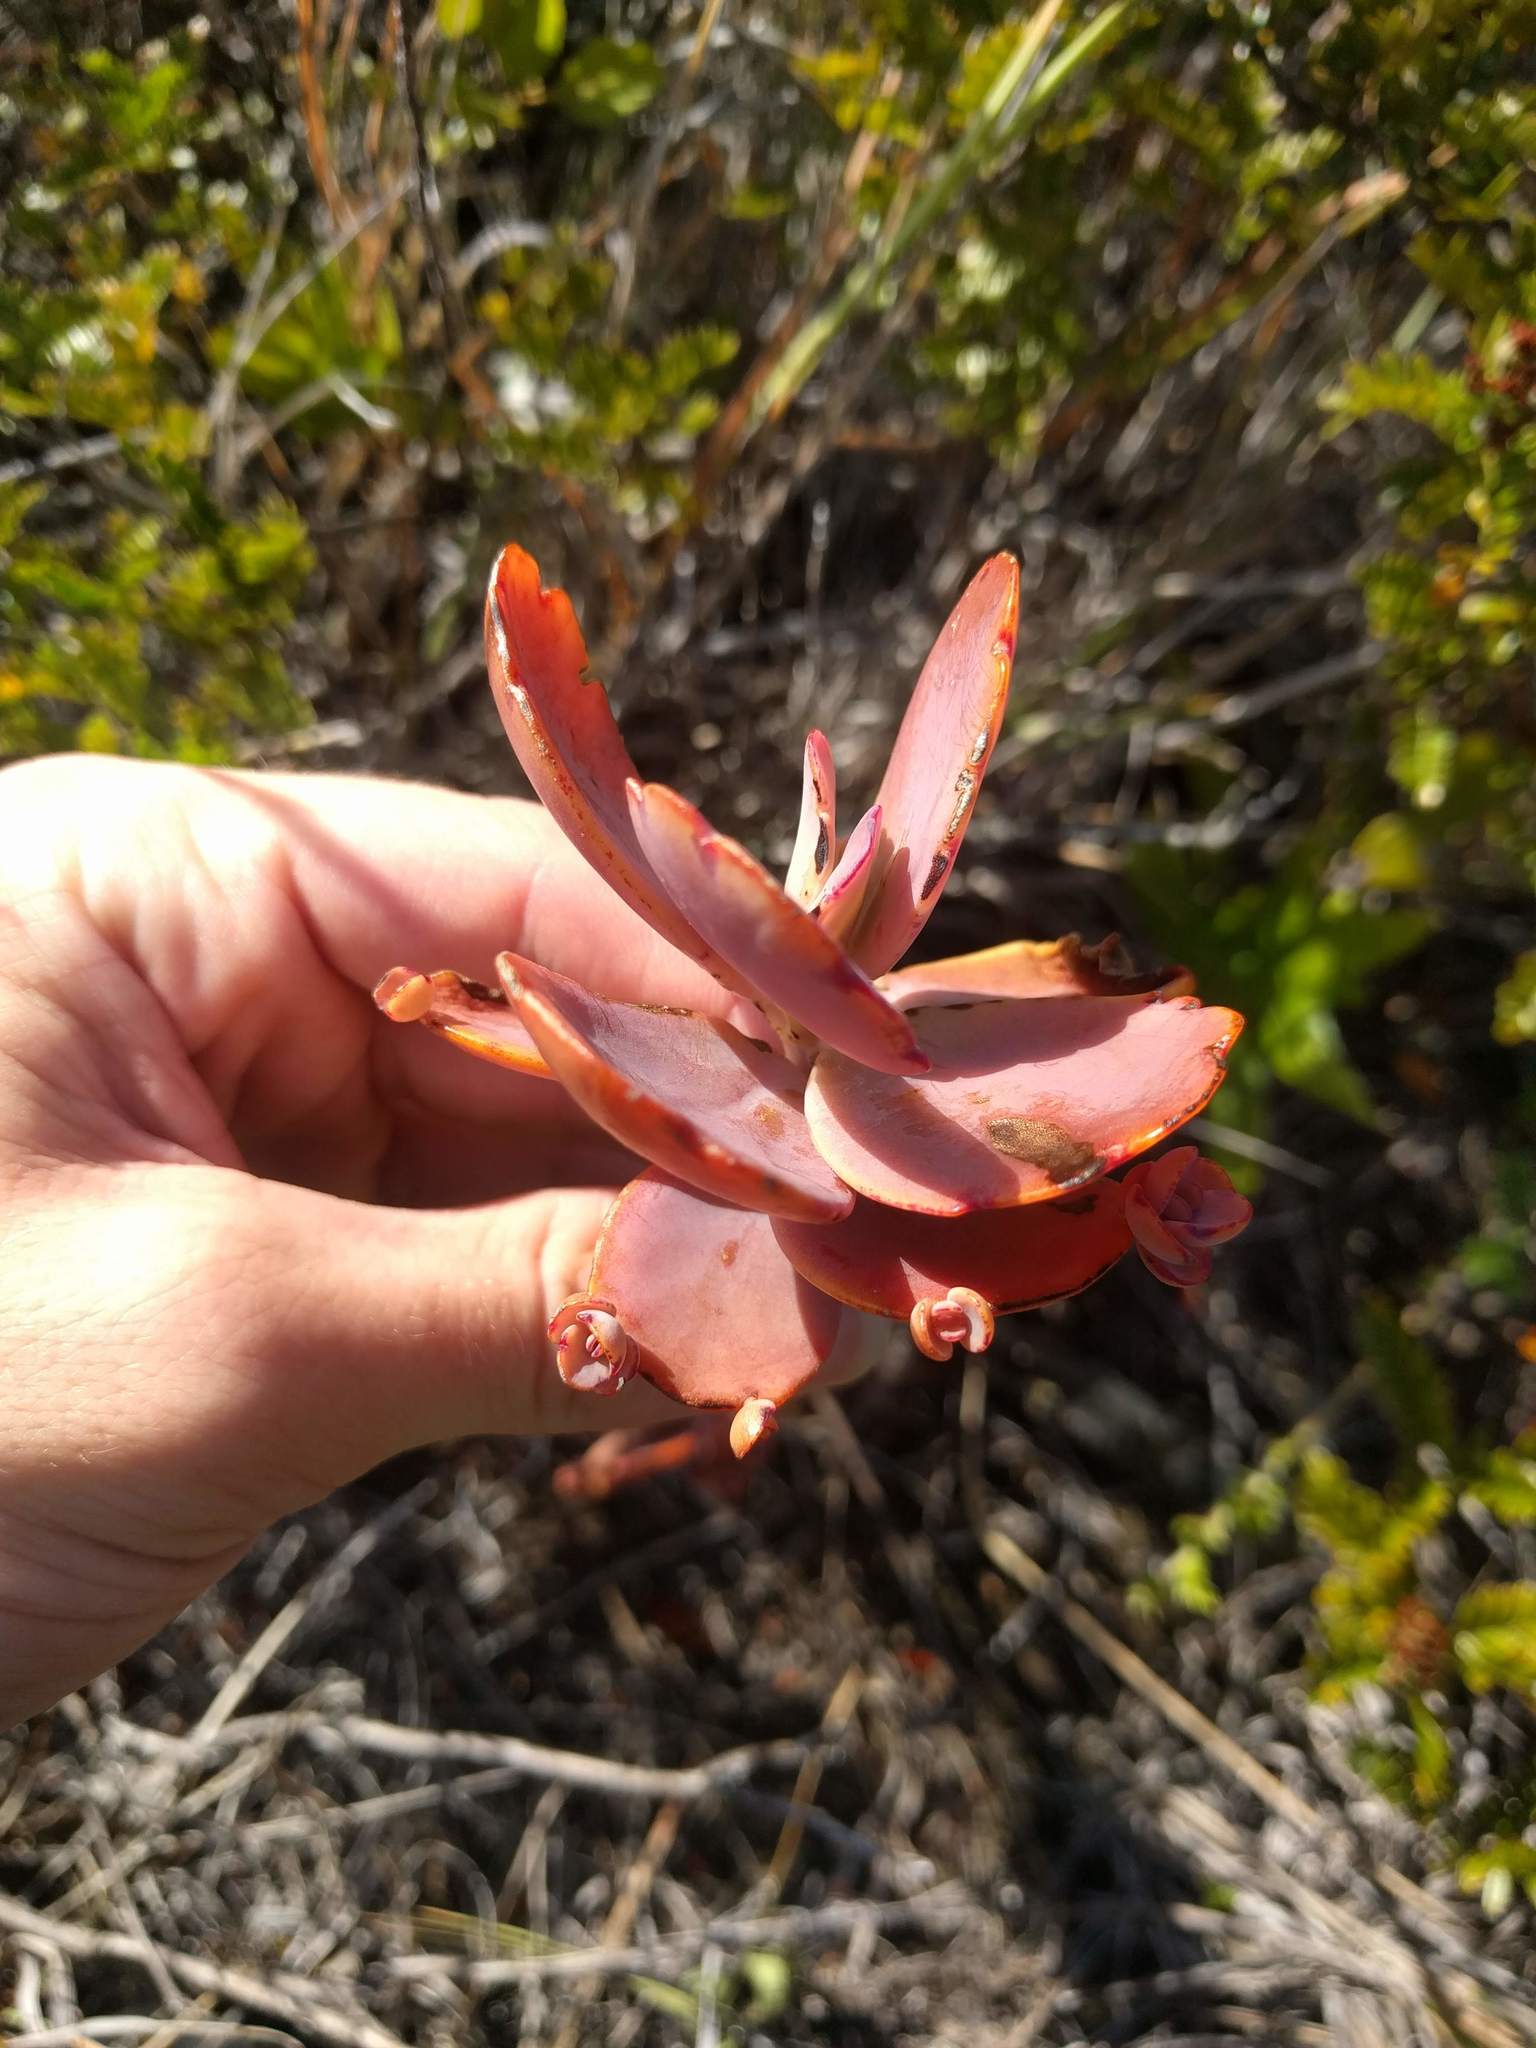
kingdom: Plantae
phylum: Tracheophyta
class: Magnoliopsida
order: Saxifragales
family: Crassulaceae
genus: Kalanchoe
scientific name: Kalanchoe fedtschenkoi
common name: Lavender scallops
